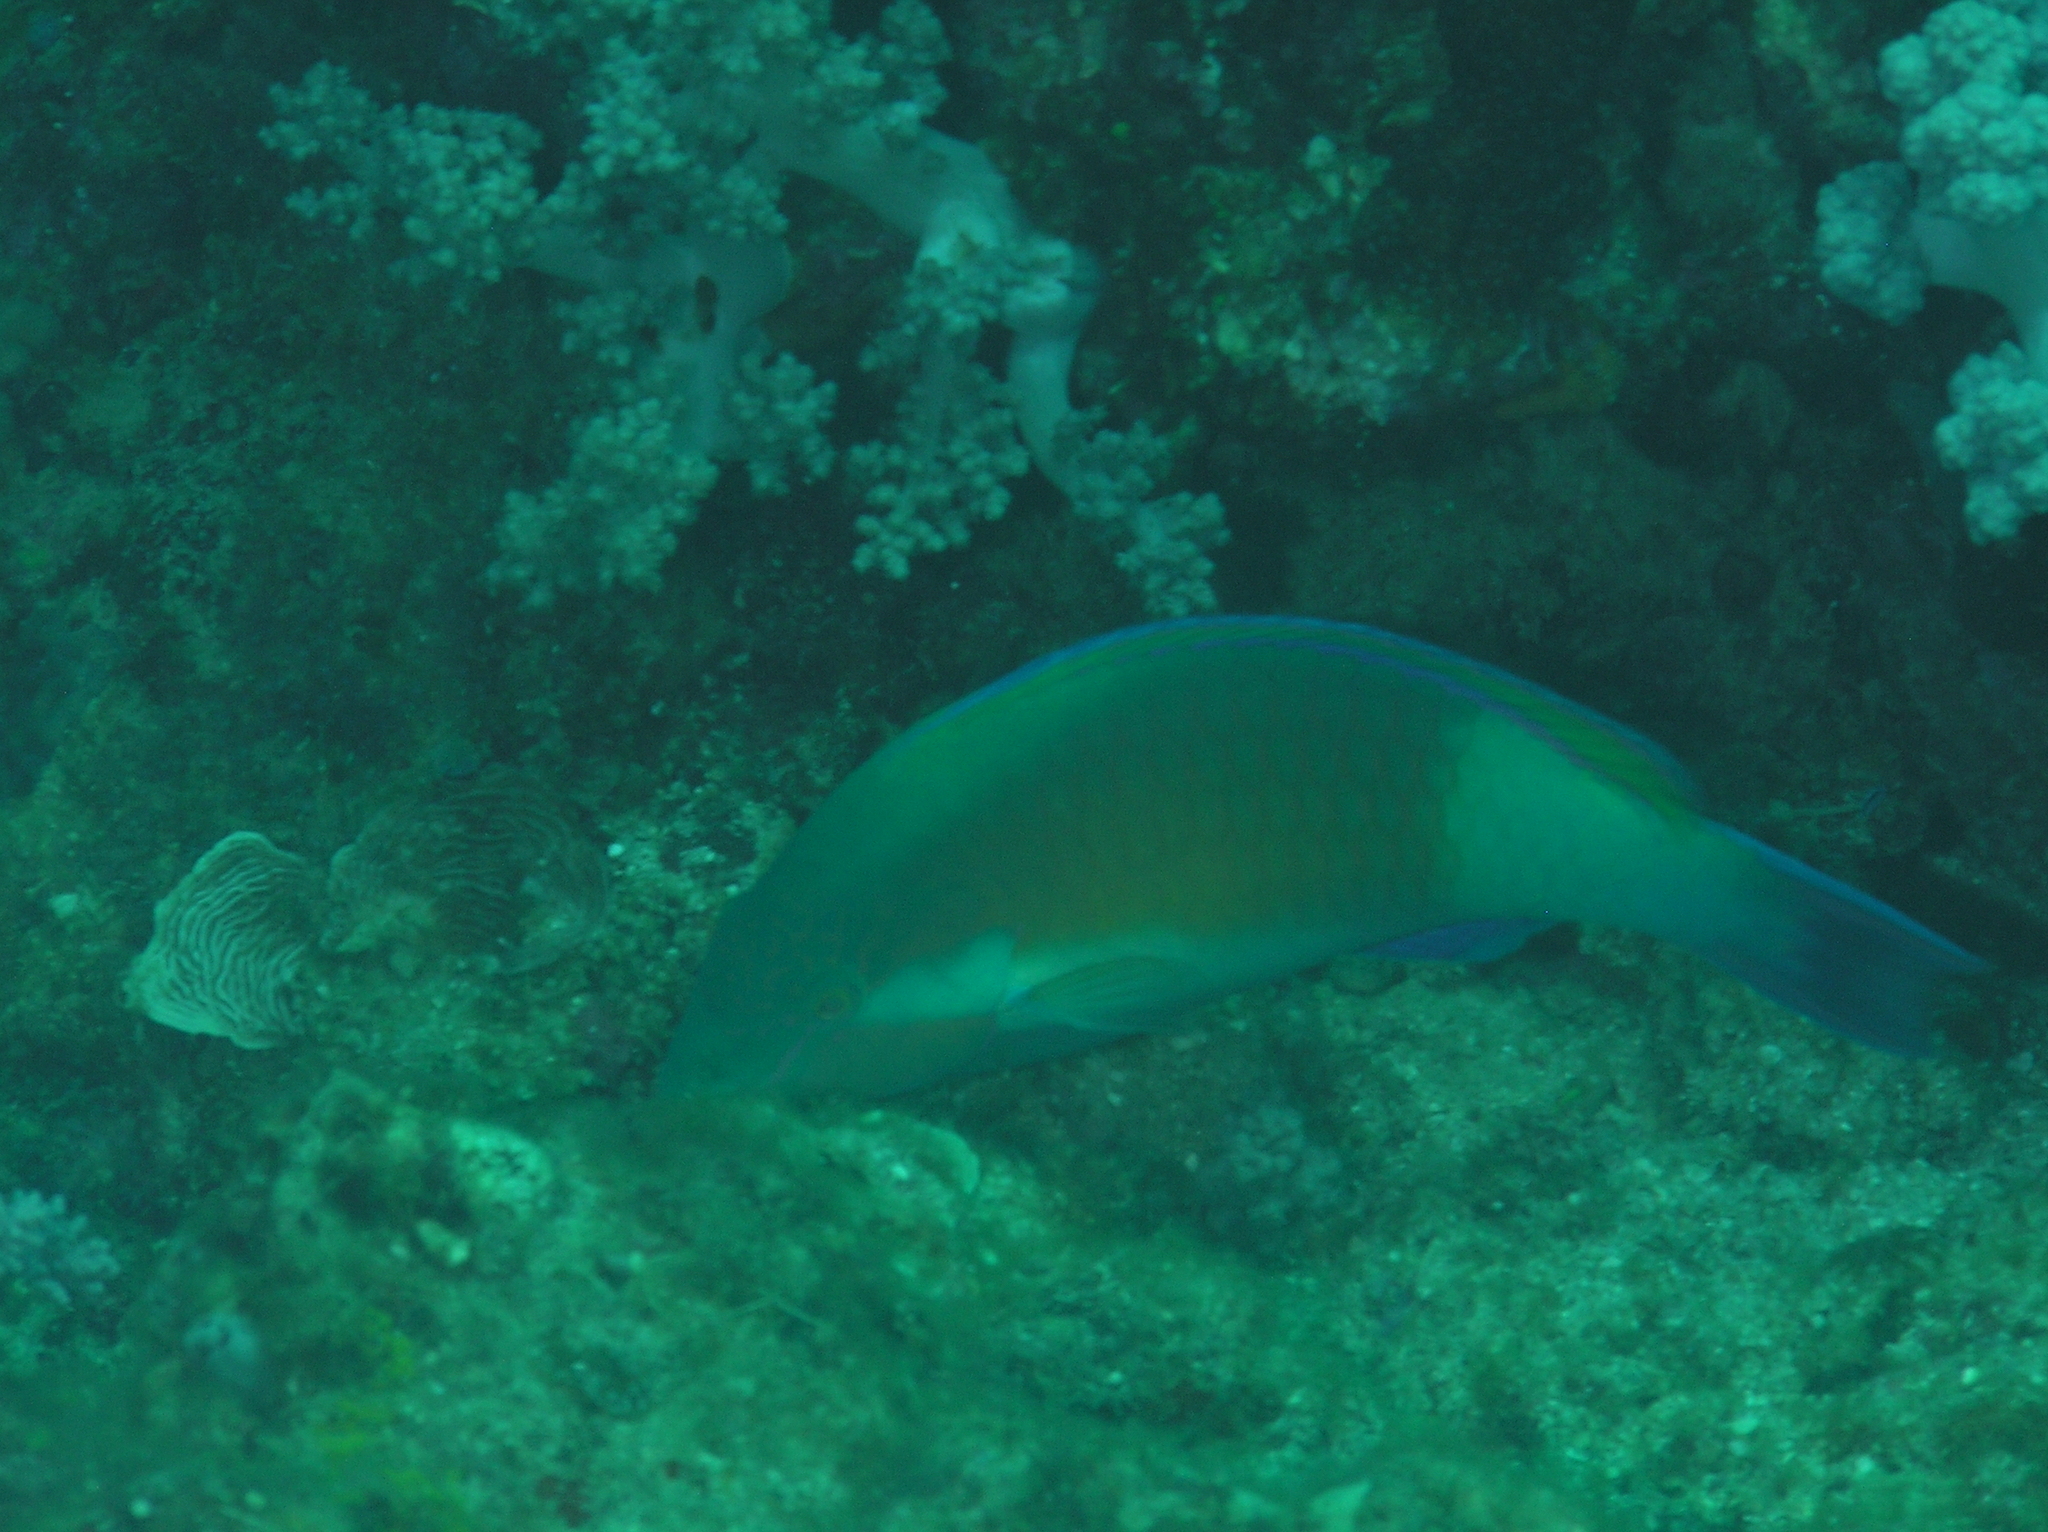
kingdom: Animalia
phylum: Chordata
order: Perciformes
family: Scaridae
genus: Scarus
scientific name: Scarus hypselopterus
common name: Java parrotfish
